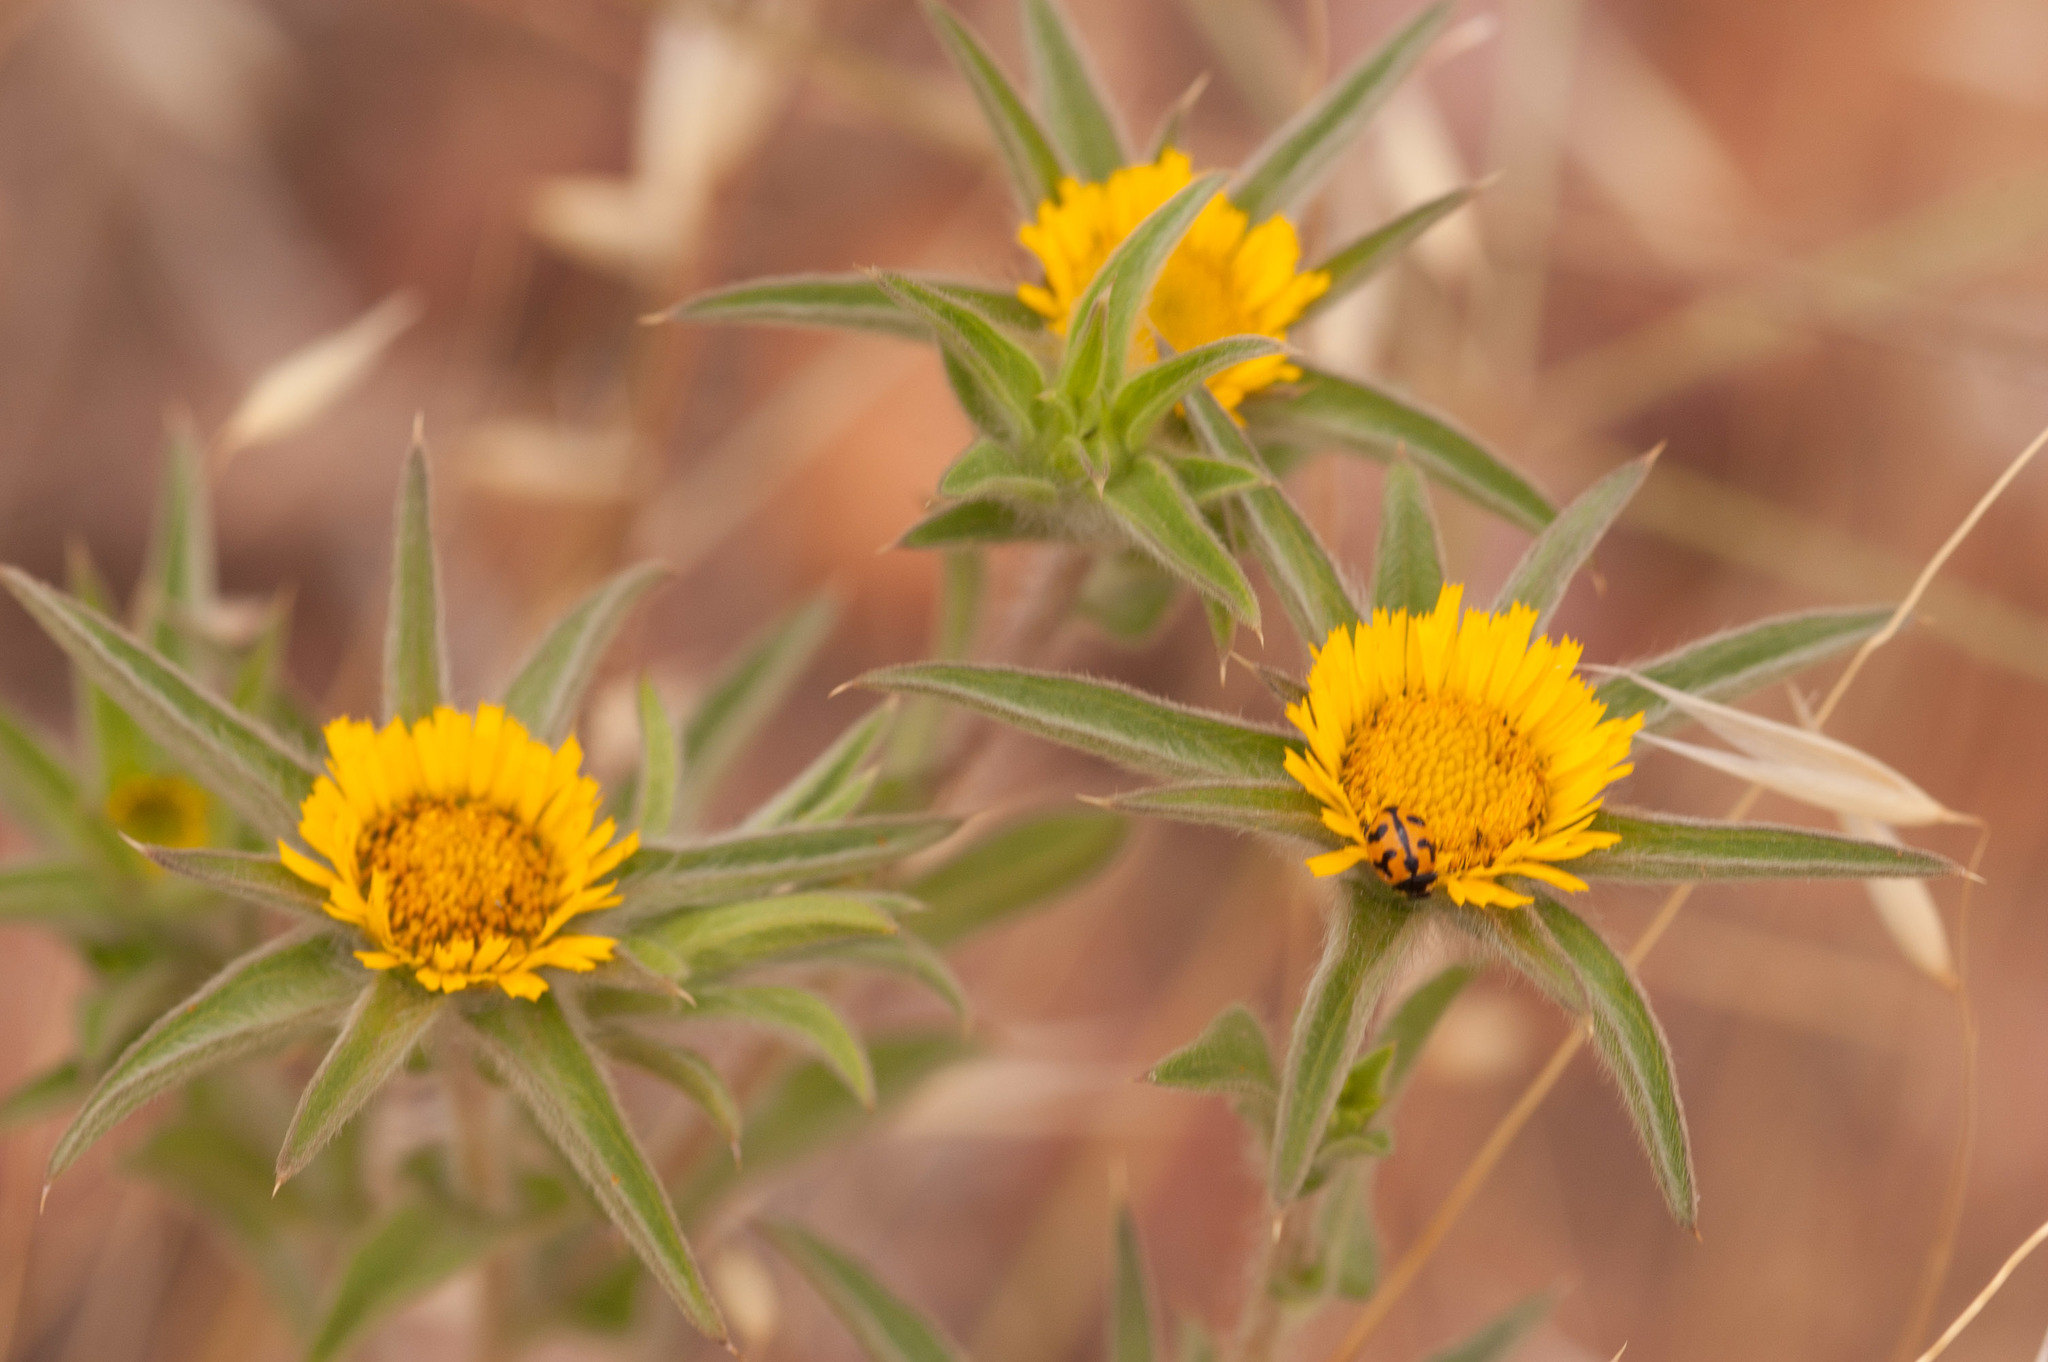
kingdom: Plantae
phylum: Tracheophyta
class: Magnoliopsida
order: Asterales
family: Asteraceae
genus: Pallenis
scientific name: Pallenis spinosa
